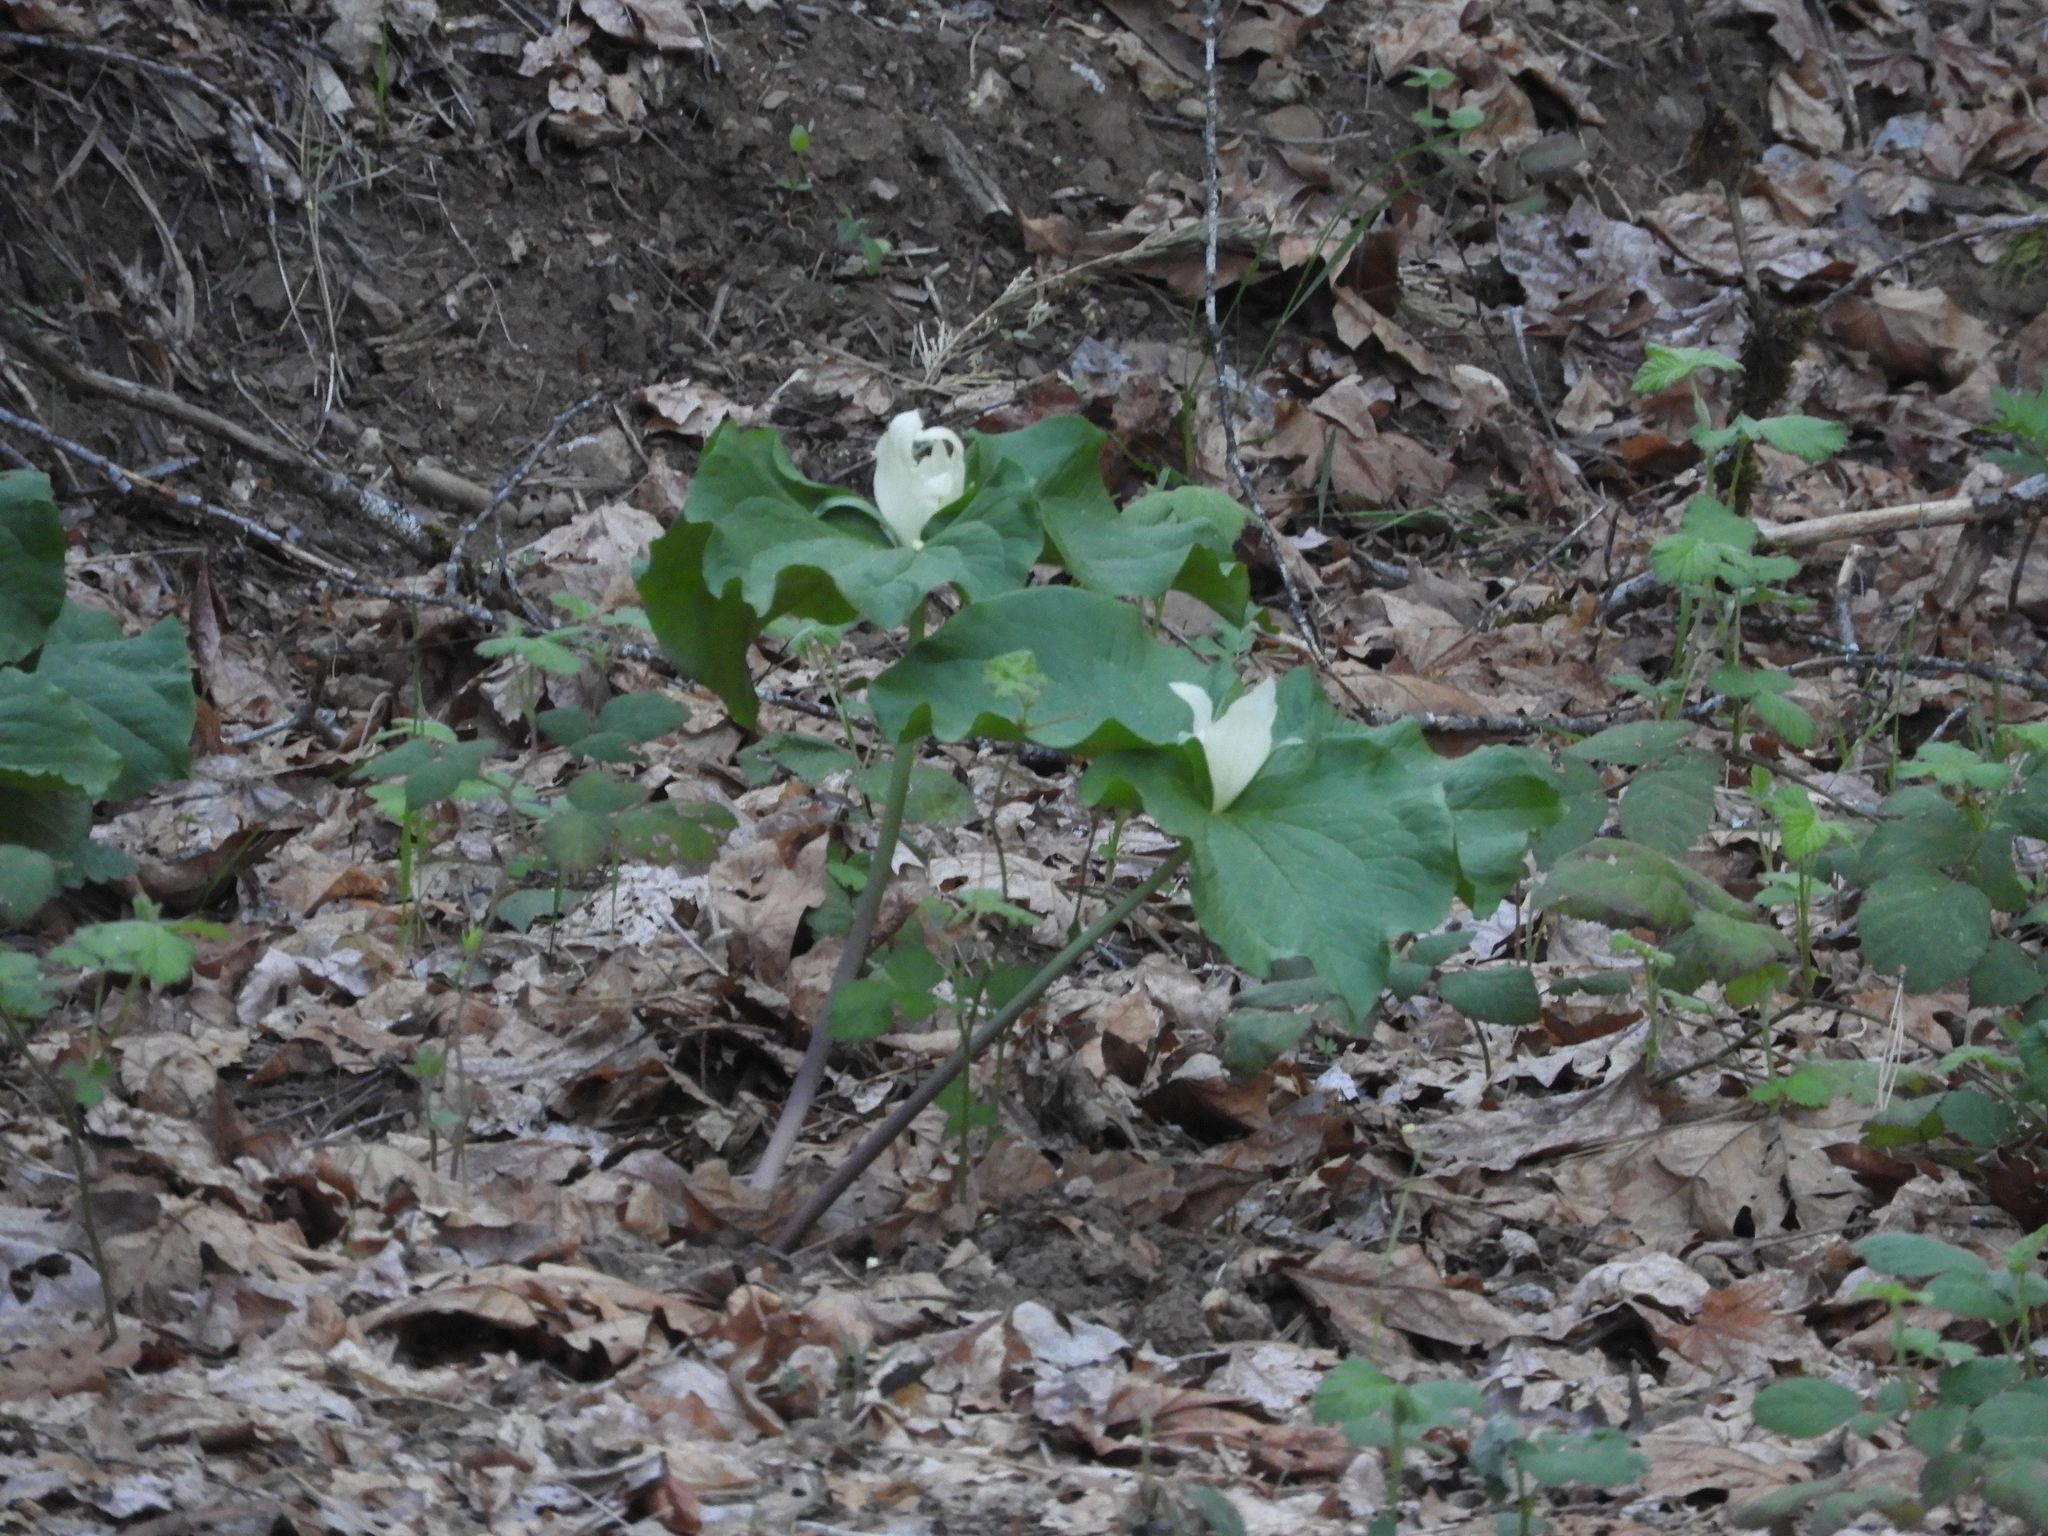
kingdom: Plantae
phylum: Tracheophyta
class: Liliopsida
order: Liliales
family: Melanthiaceae
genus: Trillium
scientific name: Trillium albidum
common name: Freeman's trillium
